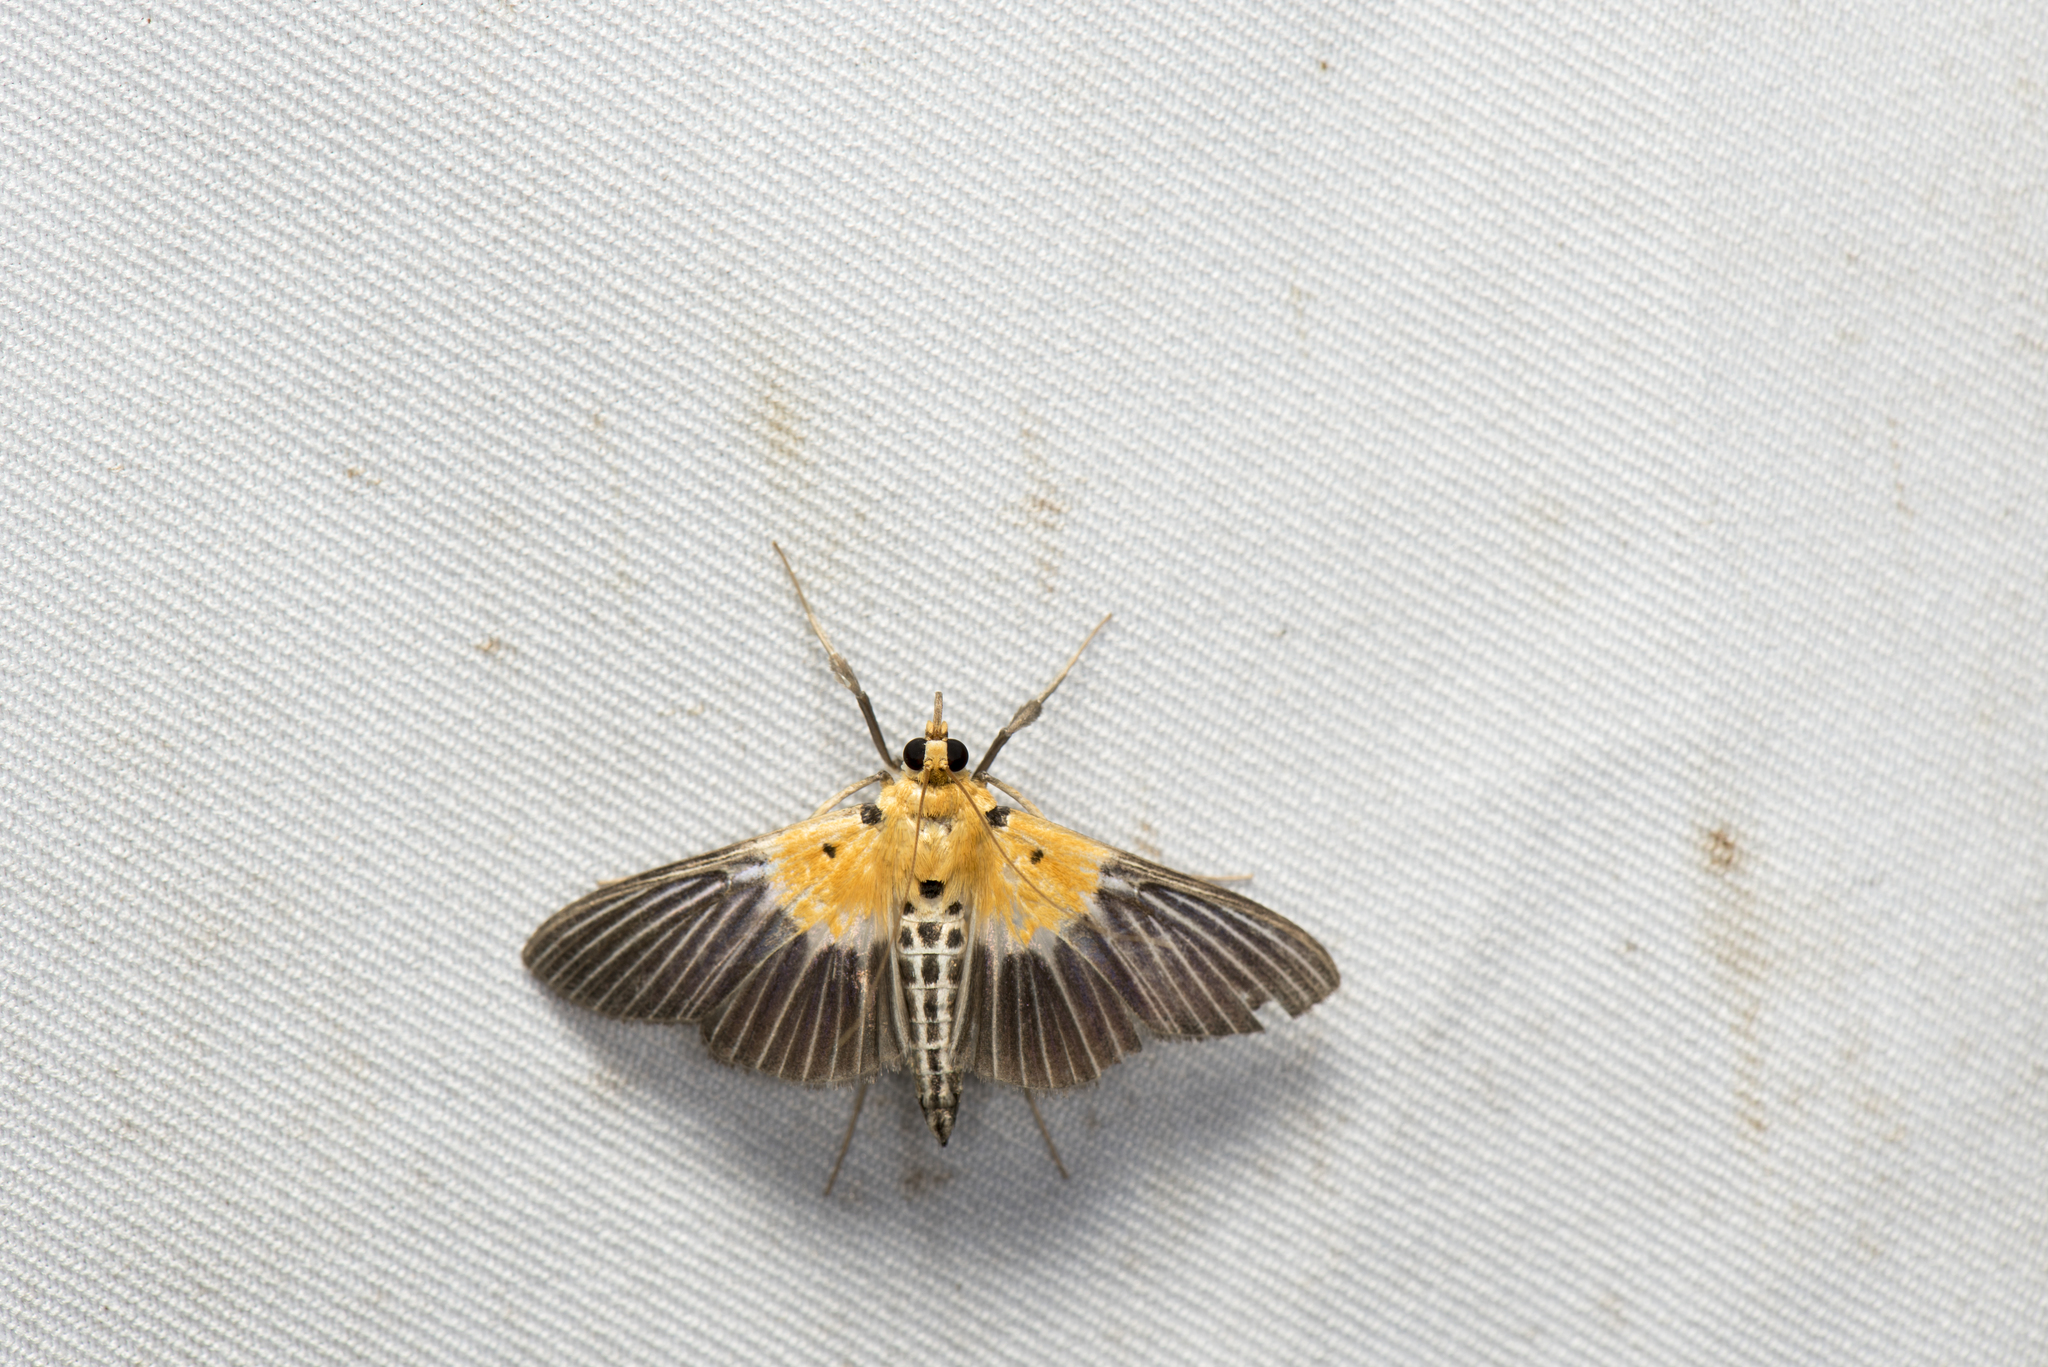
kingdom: Animalia
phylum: Arthropoda
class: Insecta
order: Lepidoptera
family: Crambidae
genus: Nevrina
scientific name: Nevrina procopia
